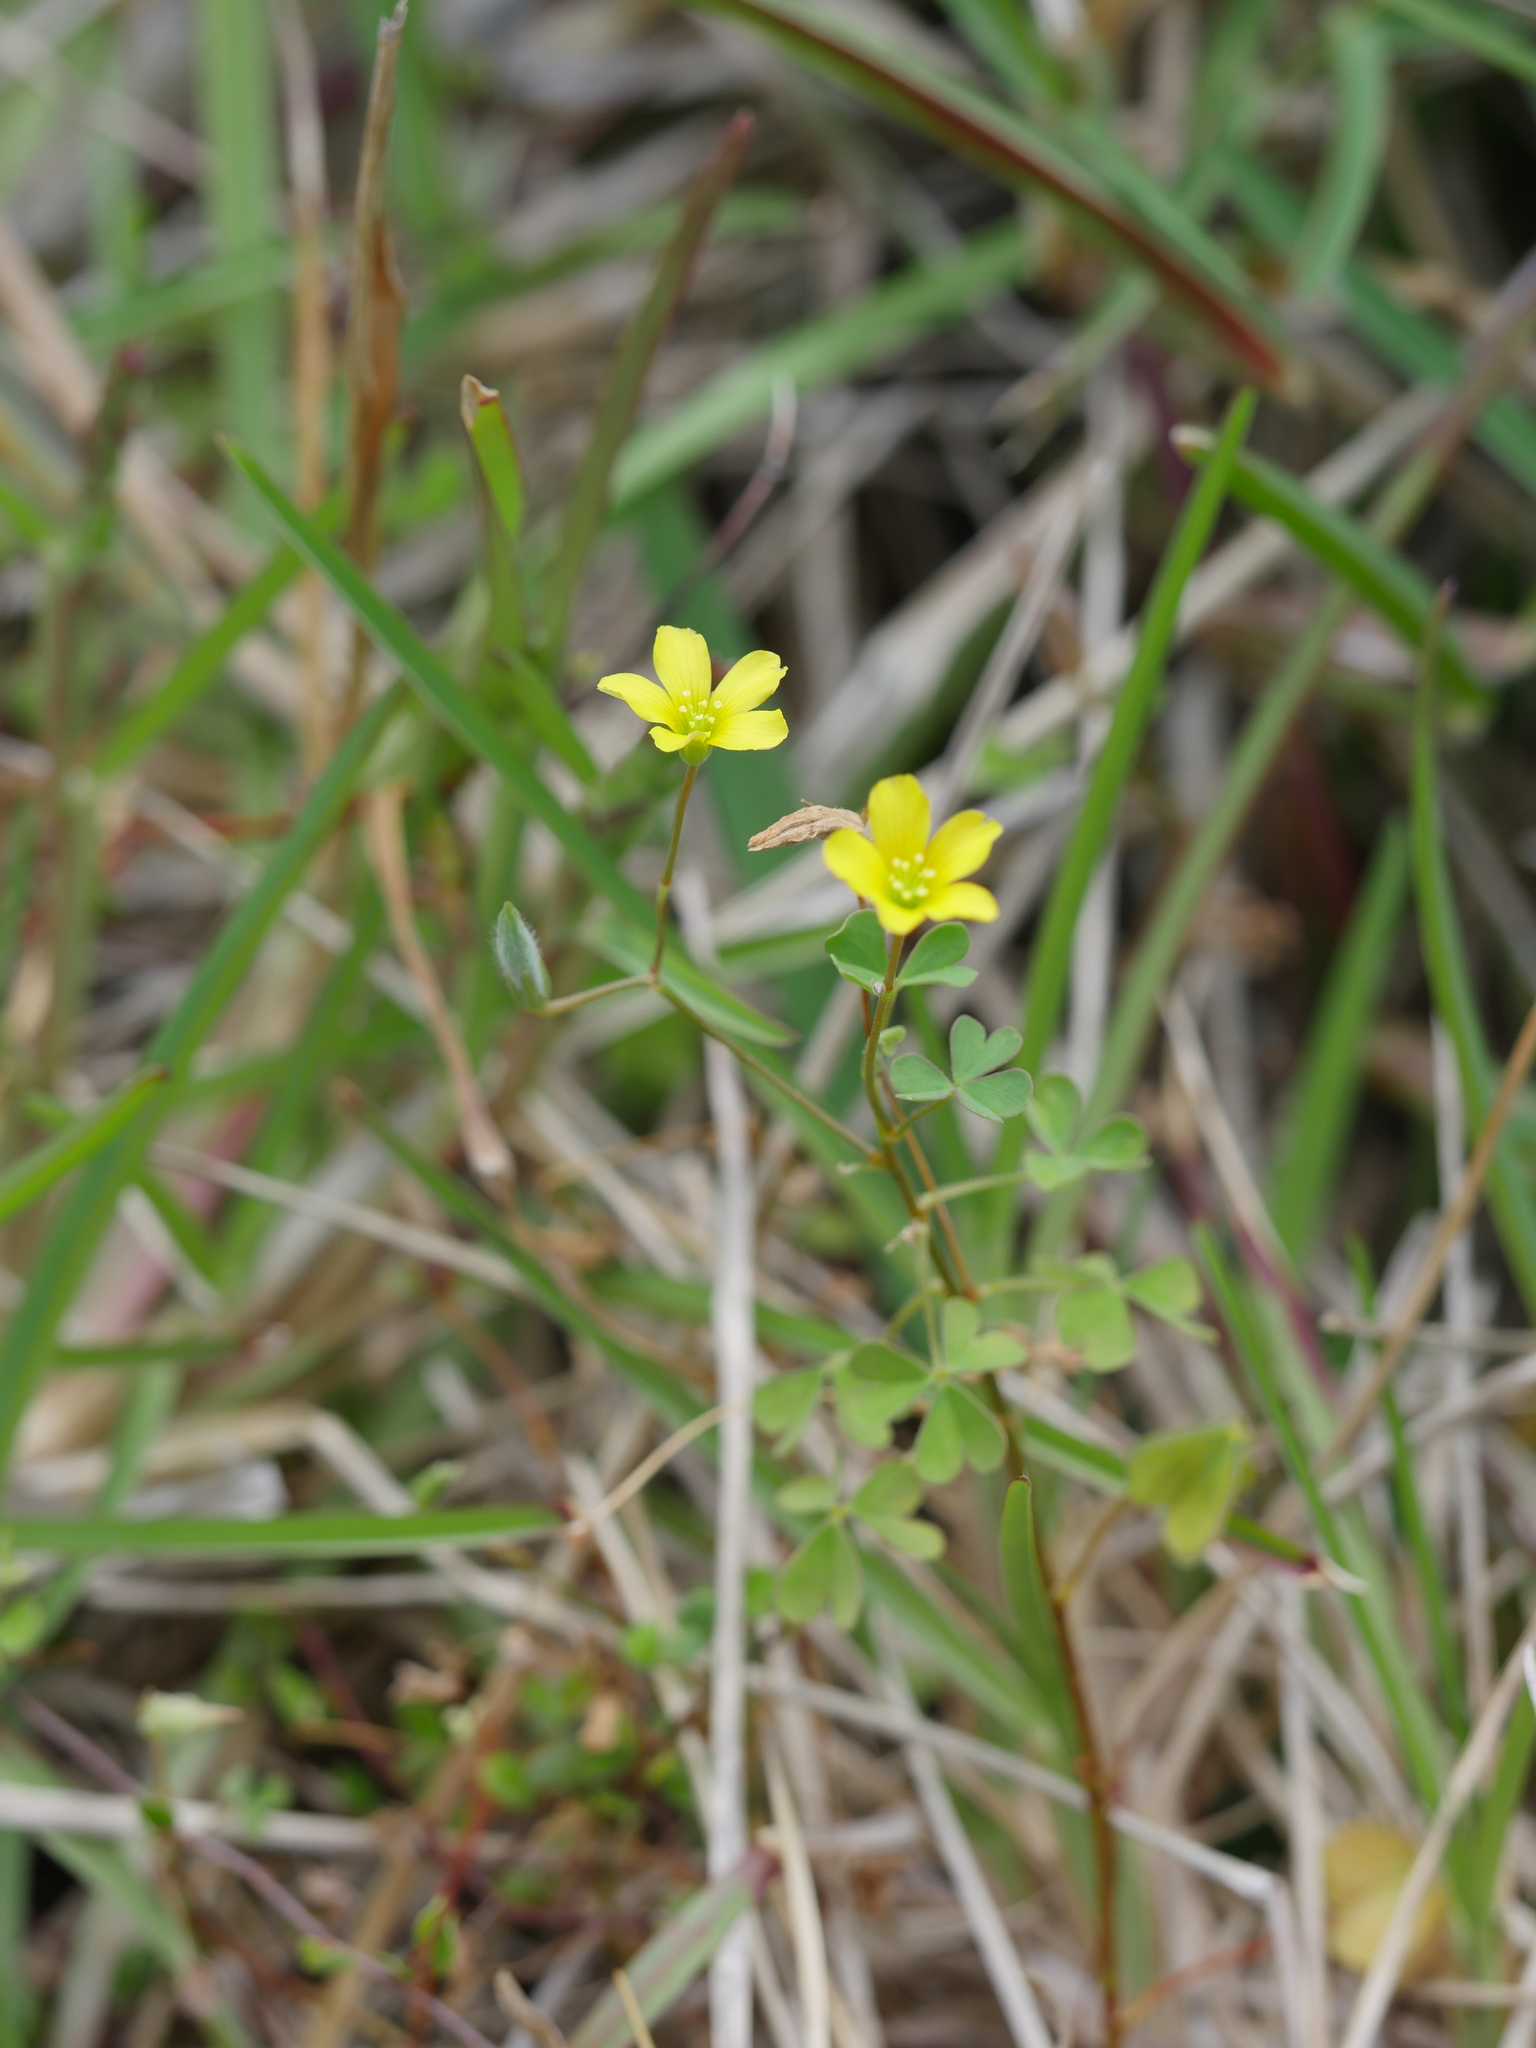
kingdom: Plantae
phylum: Tracheophyta
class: Magnoliopsida
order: Oxalidales
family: Oxalidaceae
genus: Oxalis
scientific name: Oxalis rubens
